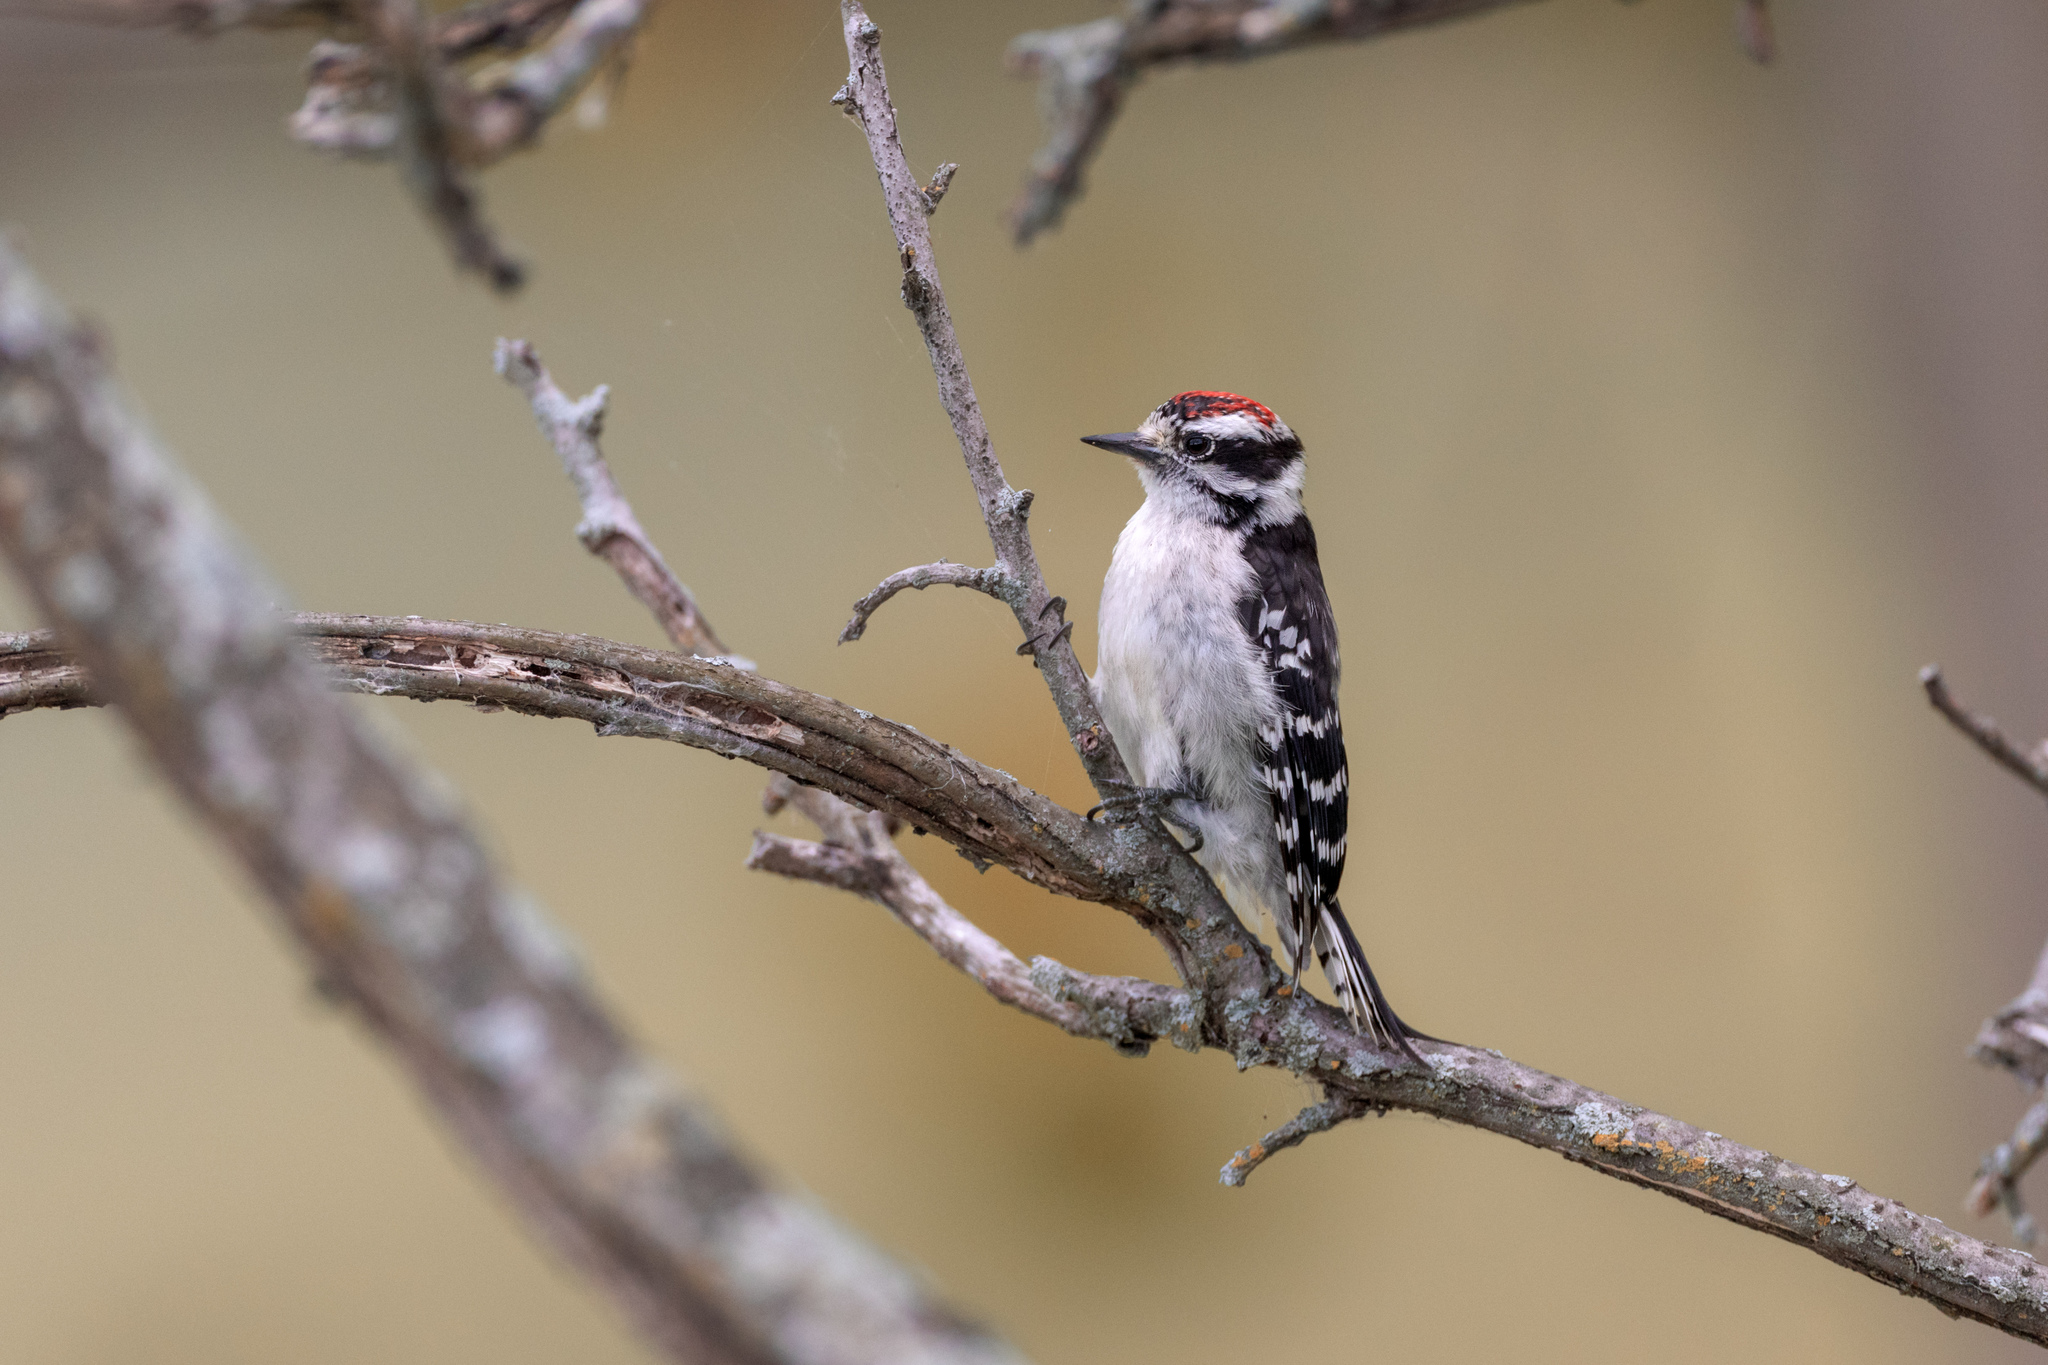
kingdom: Animalia
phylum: Chordata
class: Aves
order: Piciformes
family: Picidae
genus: Dryobates
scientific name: Dryobates pubescens
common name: Downy woodpecker
